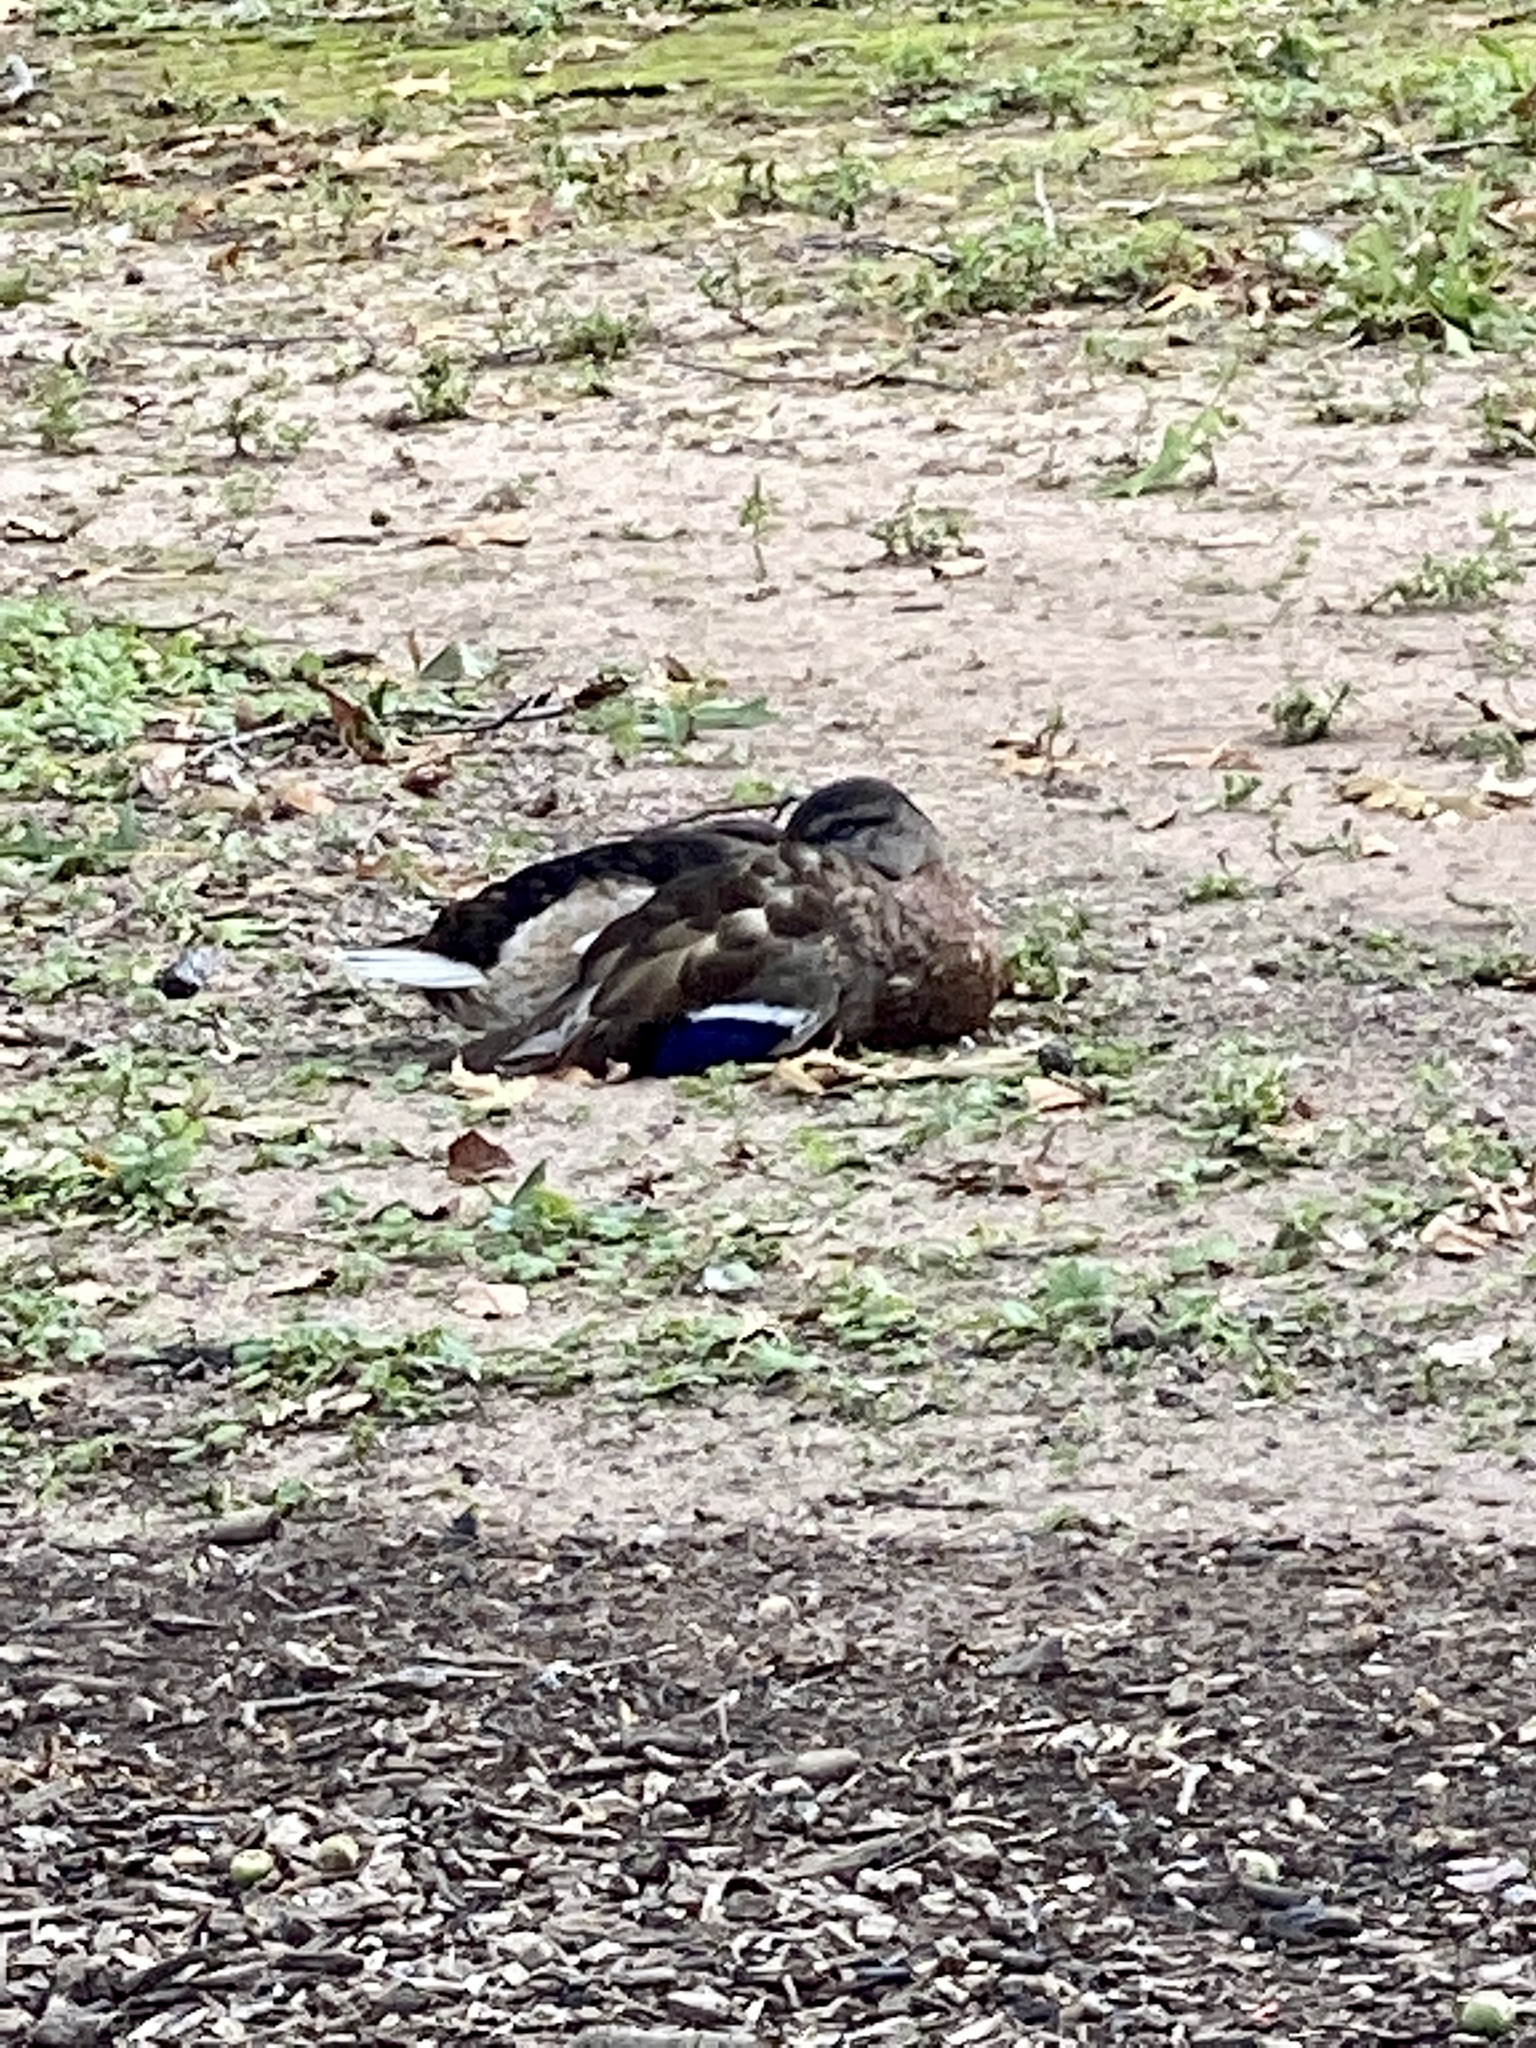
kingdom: Animalia
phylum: Chordata
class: Aves
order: Anseriformes
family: Anatidae
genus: Anas
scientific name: Anas platyrhynchos
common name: Mallard
